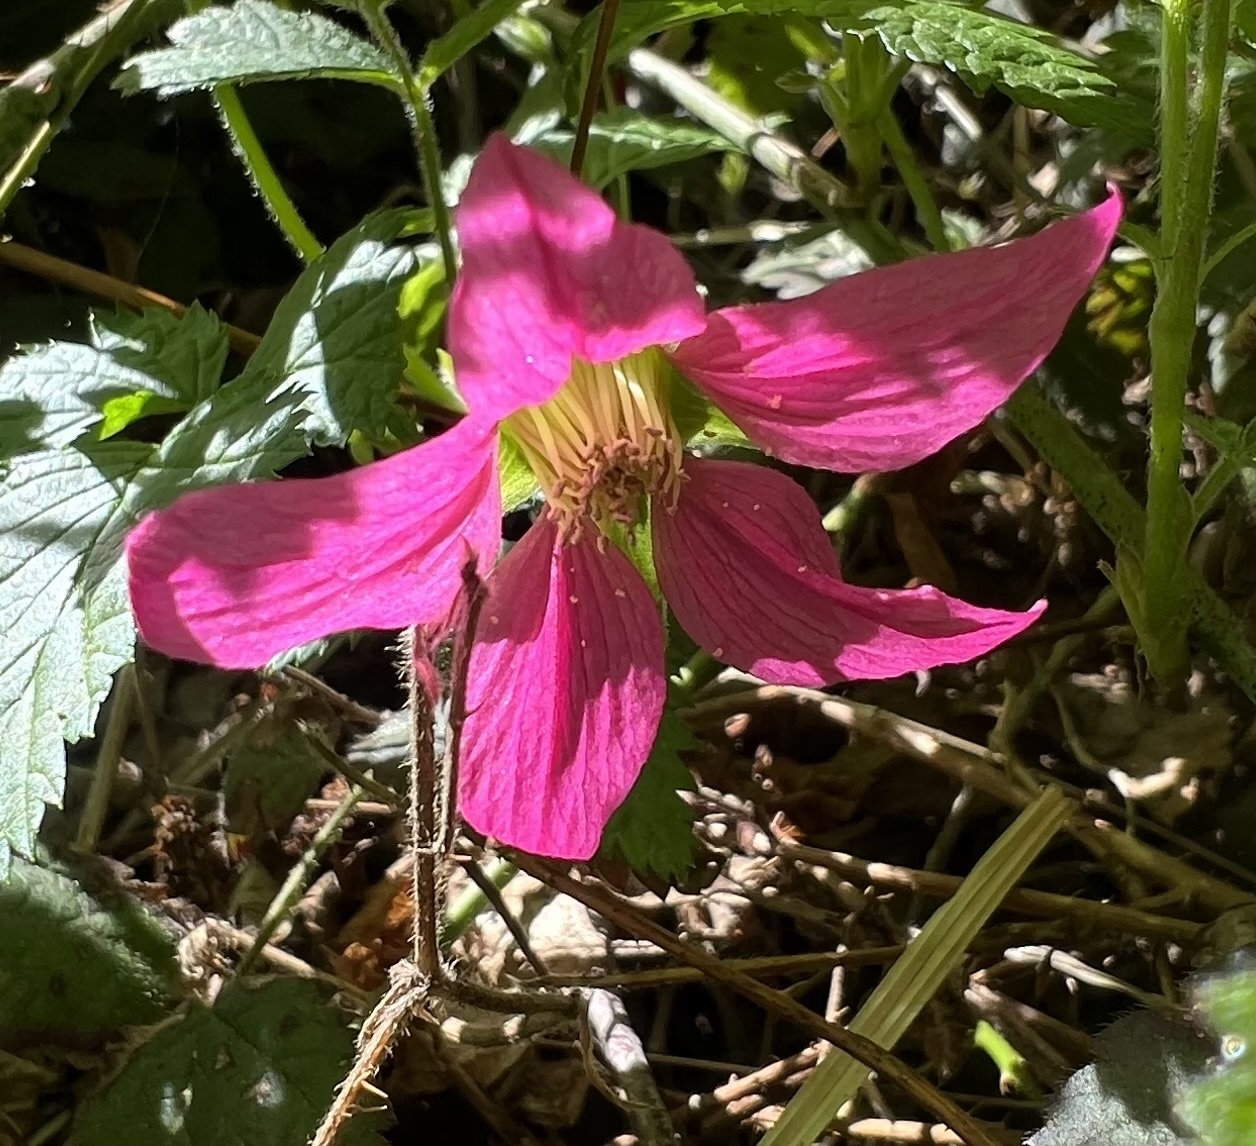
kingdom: Plantae
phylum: Tracheophyta
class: Magnoliopsida
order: Rosales
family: Rosaceae
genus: Rubus
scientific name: Rubus spectabilis
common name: Salmonberry
